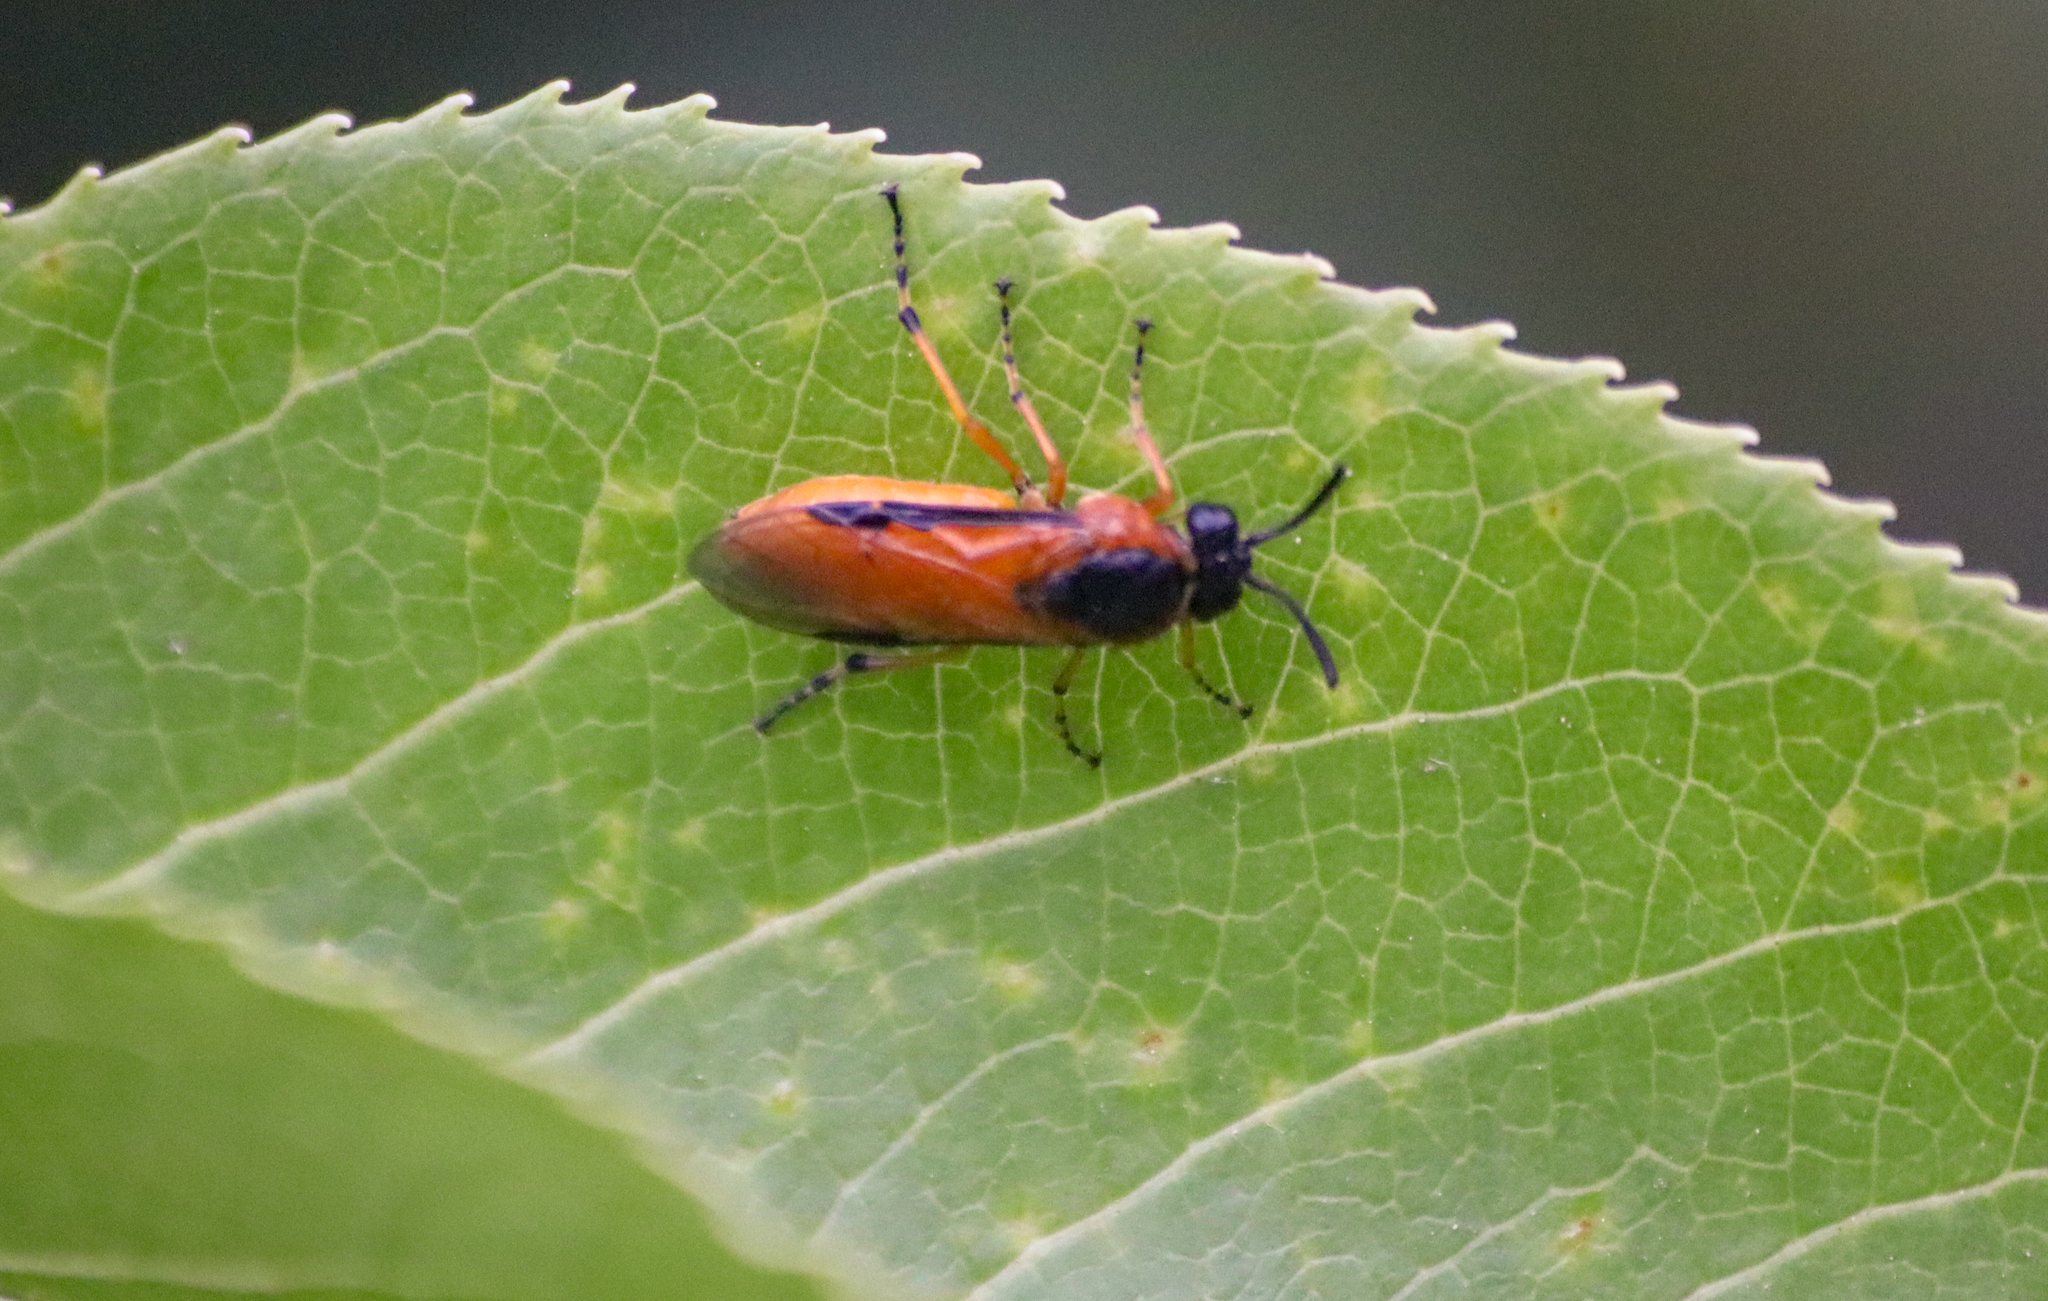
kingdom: Animalia
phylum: Arthropoda
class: Insecta
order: Hymenoptera
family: Argidae
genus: Arge
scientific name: Arge ochropus
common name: Argid sawfly
